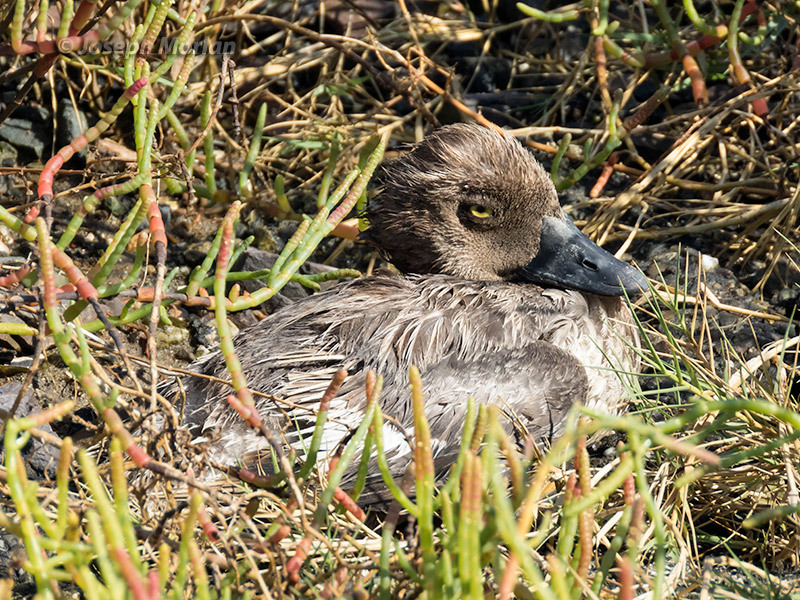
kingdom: Animalia
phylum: Chordata
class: Aves
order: Anseriformes
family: Anatidae
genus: Bucephala
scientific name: Bucephala clangula
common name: Common goldeneye
